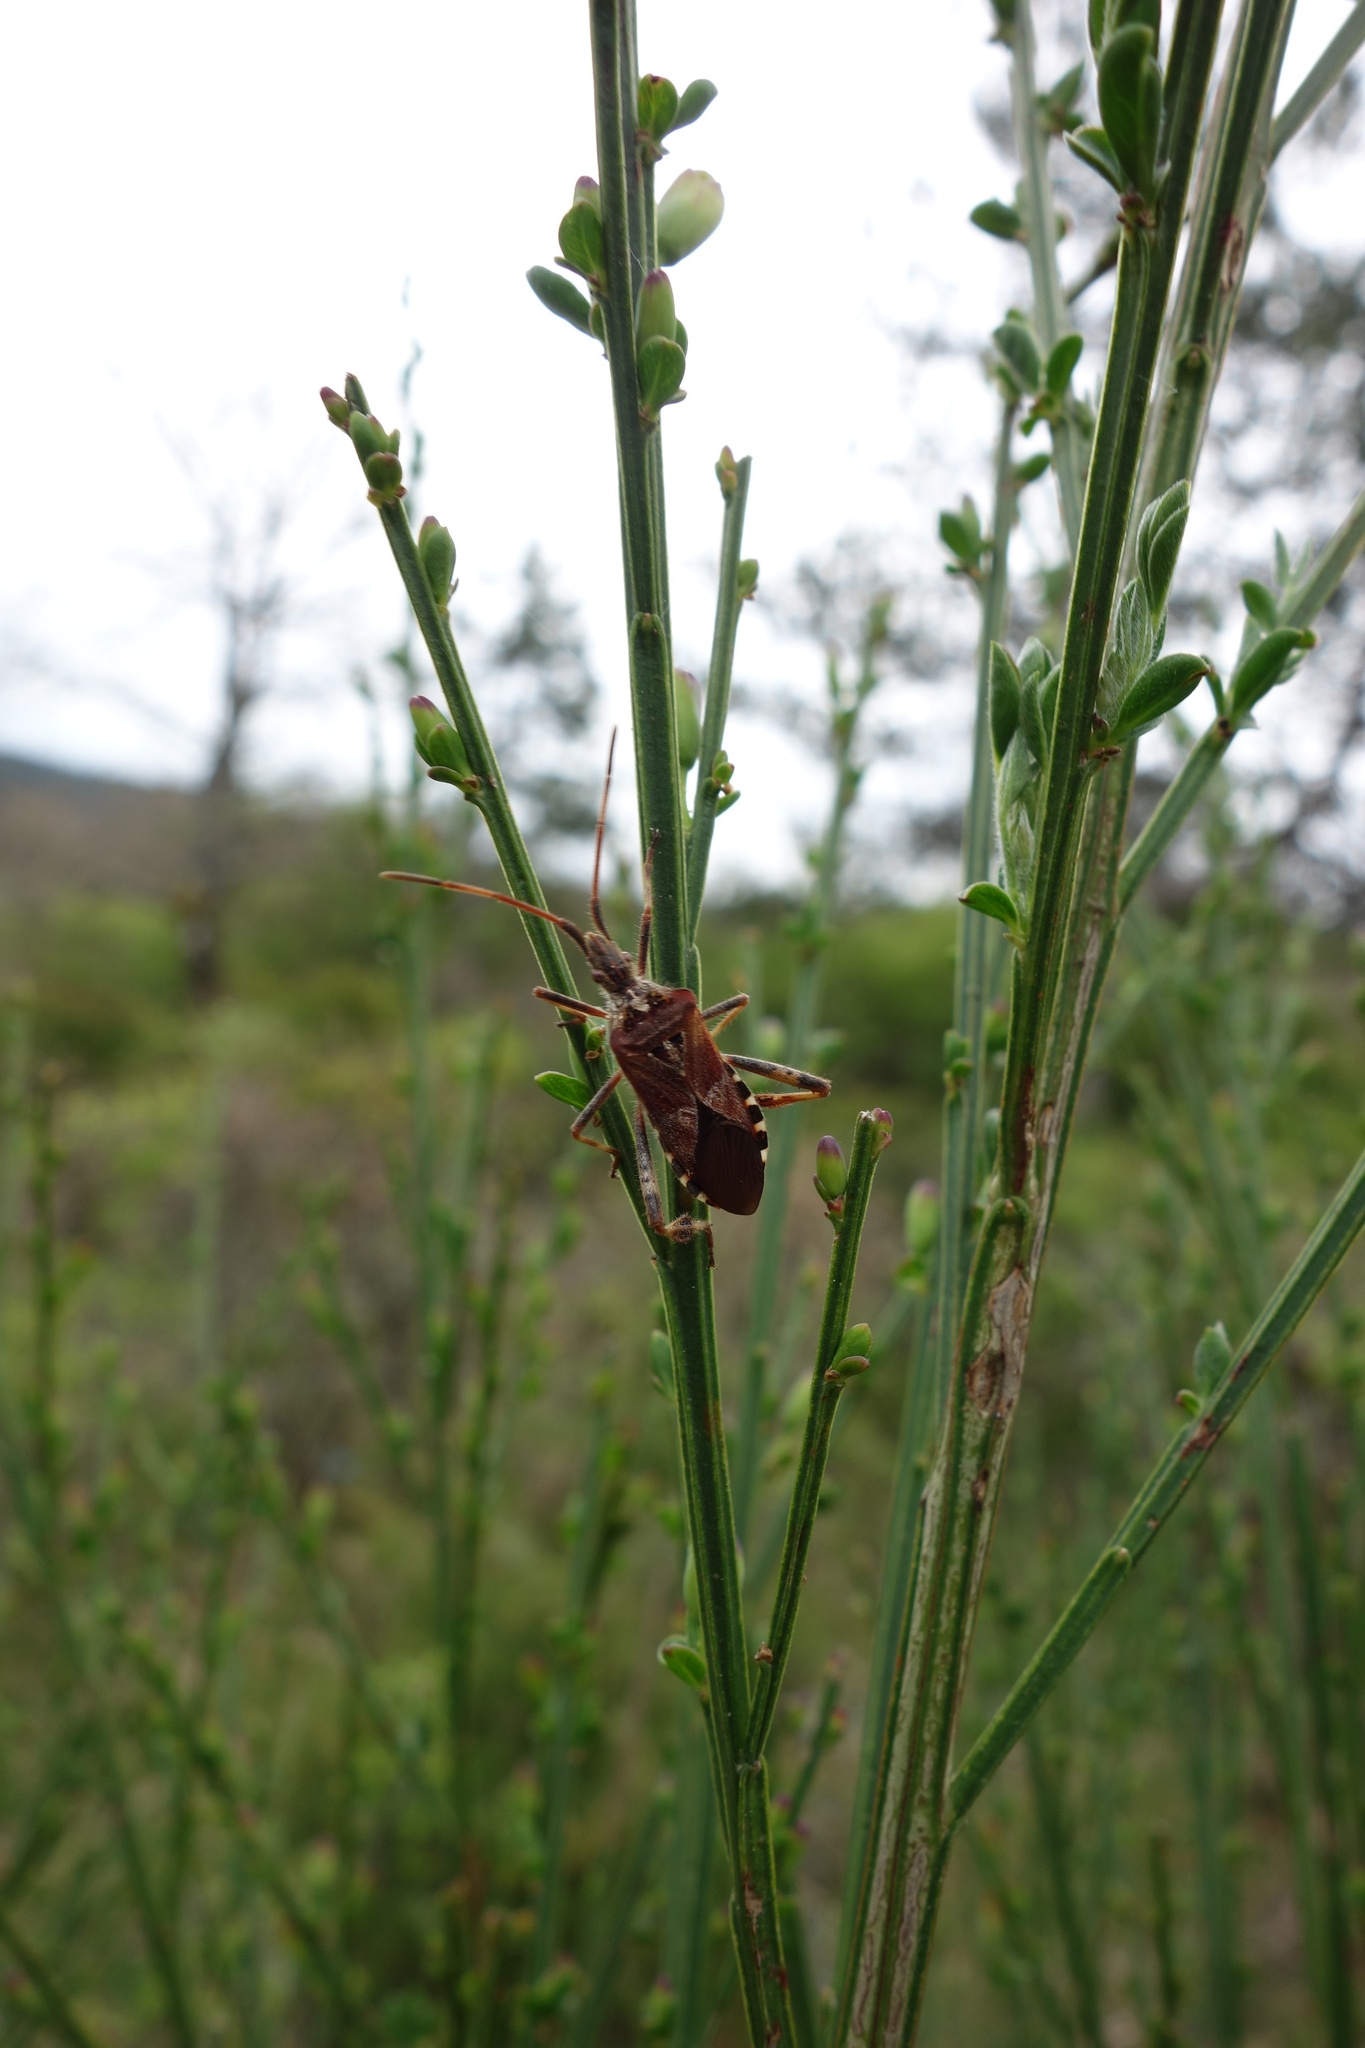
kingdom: Animalia
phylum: Arthropoda
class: Insecta
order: Hemiptera
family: Coreidae
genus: Leptoglossus
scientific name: Leptoglossus occidentalis
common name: Western conifer-seed bug
